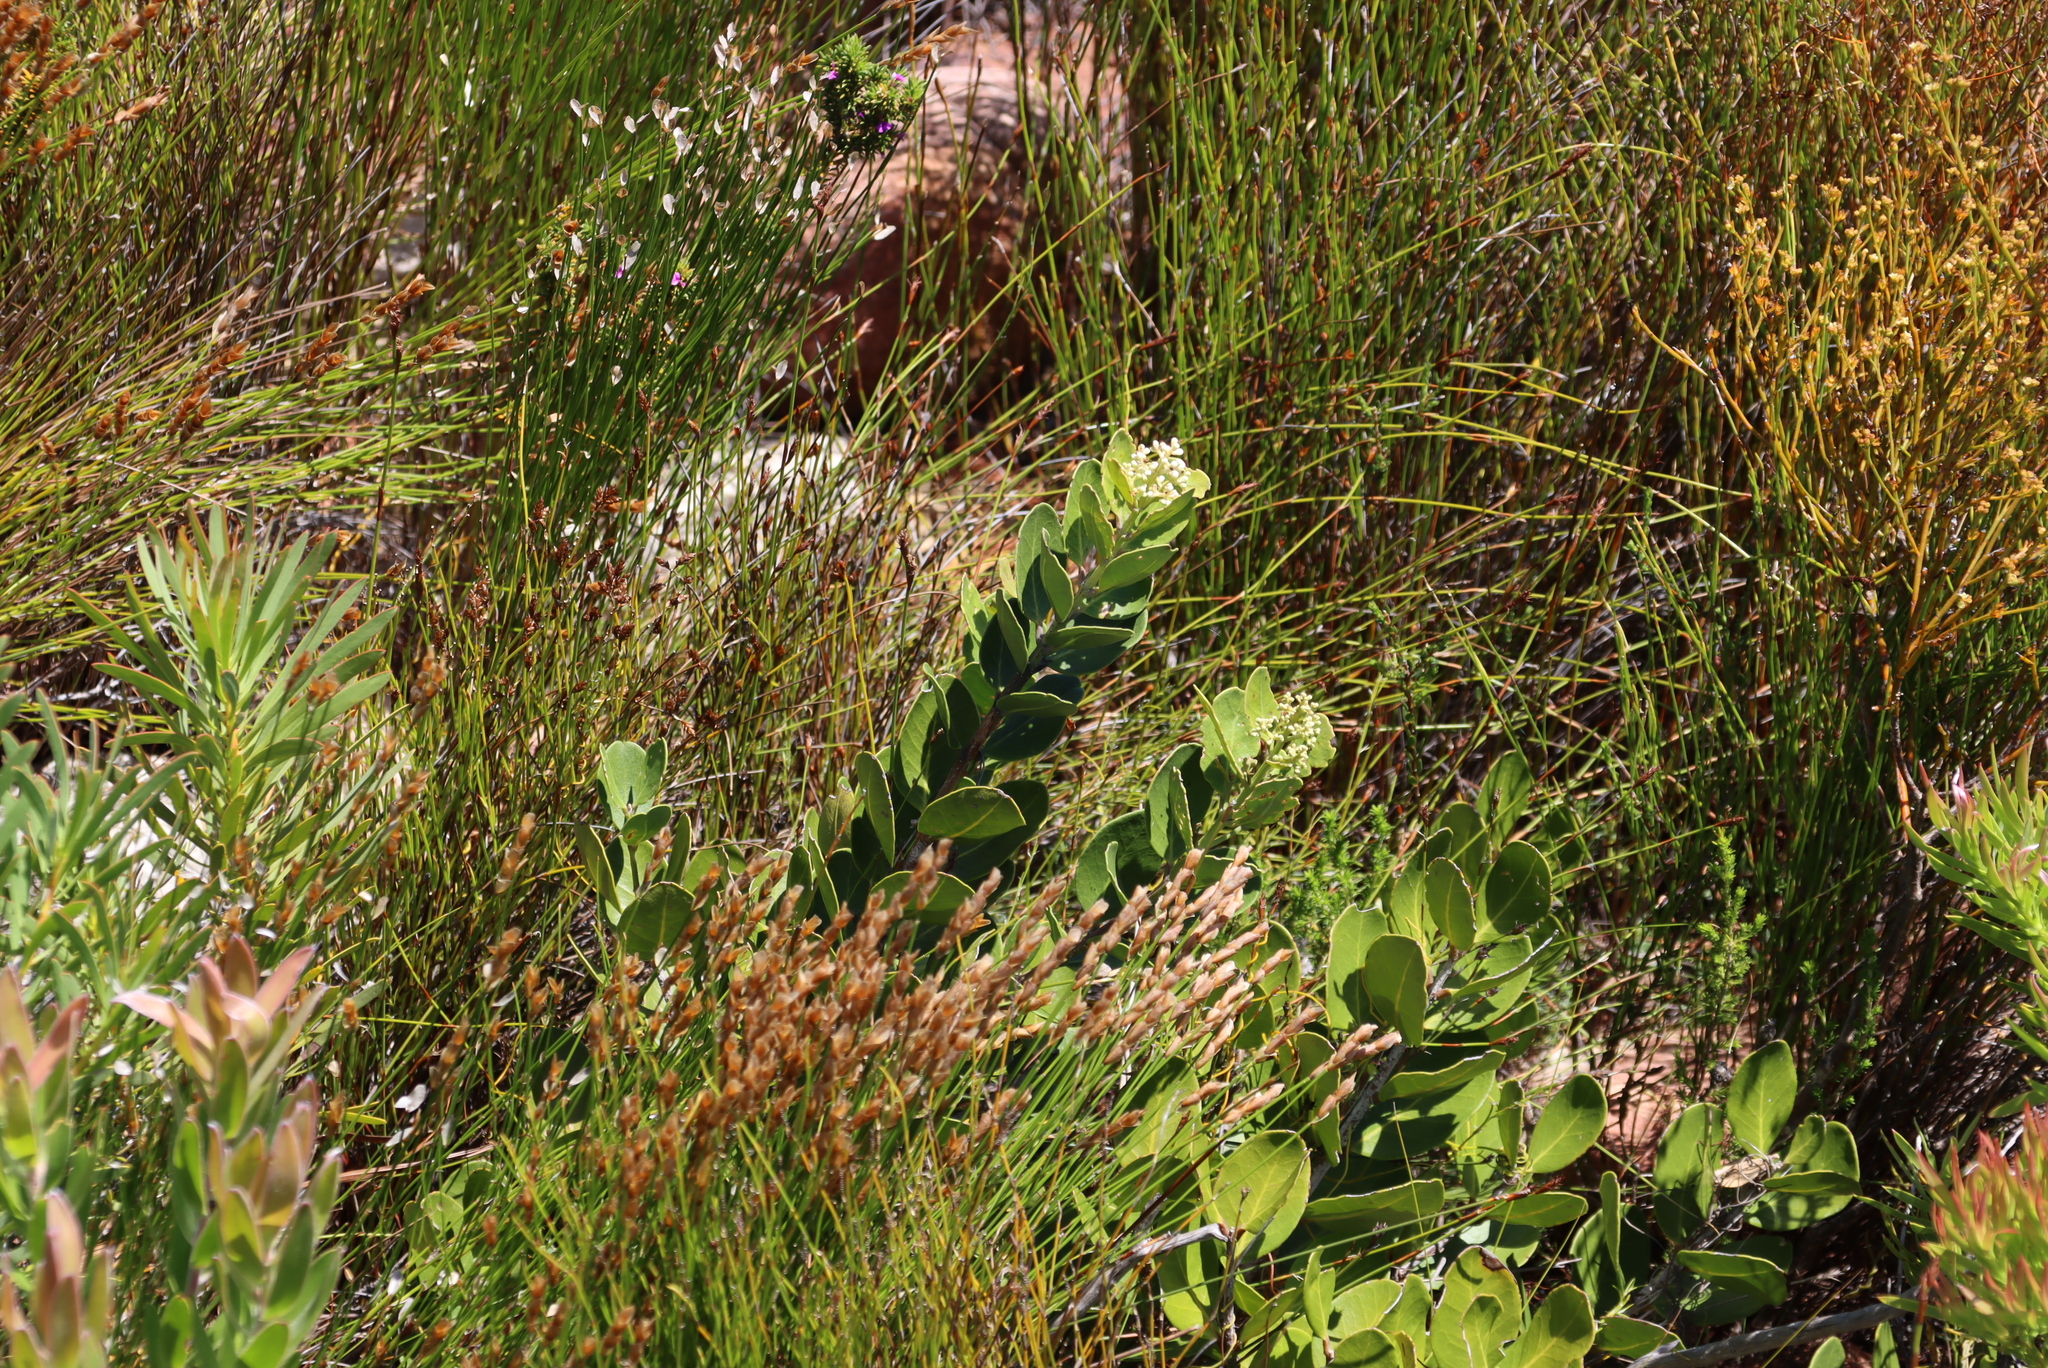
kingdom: Plantae
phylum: Tracheophyta
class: Magnoliopsida
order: Lamiales
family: Oleaceae
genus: Olea
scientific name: Olea capensis
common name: Black ironwood
